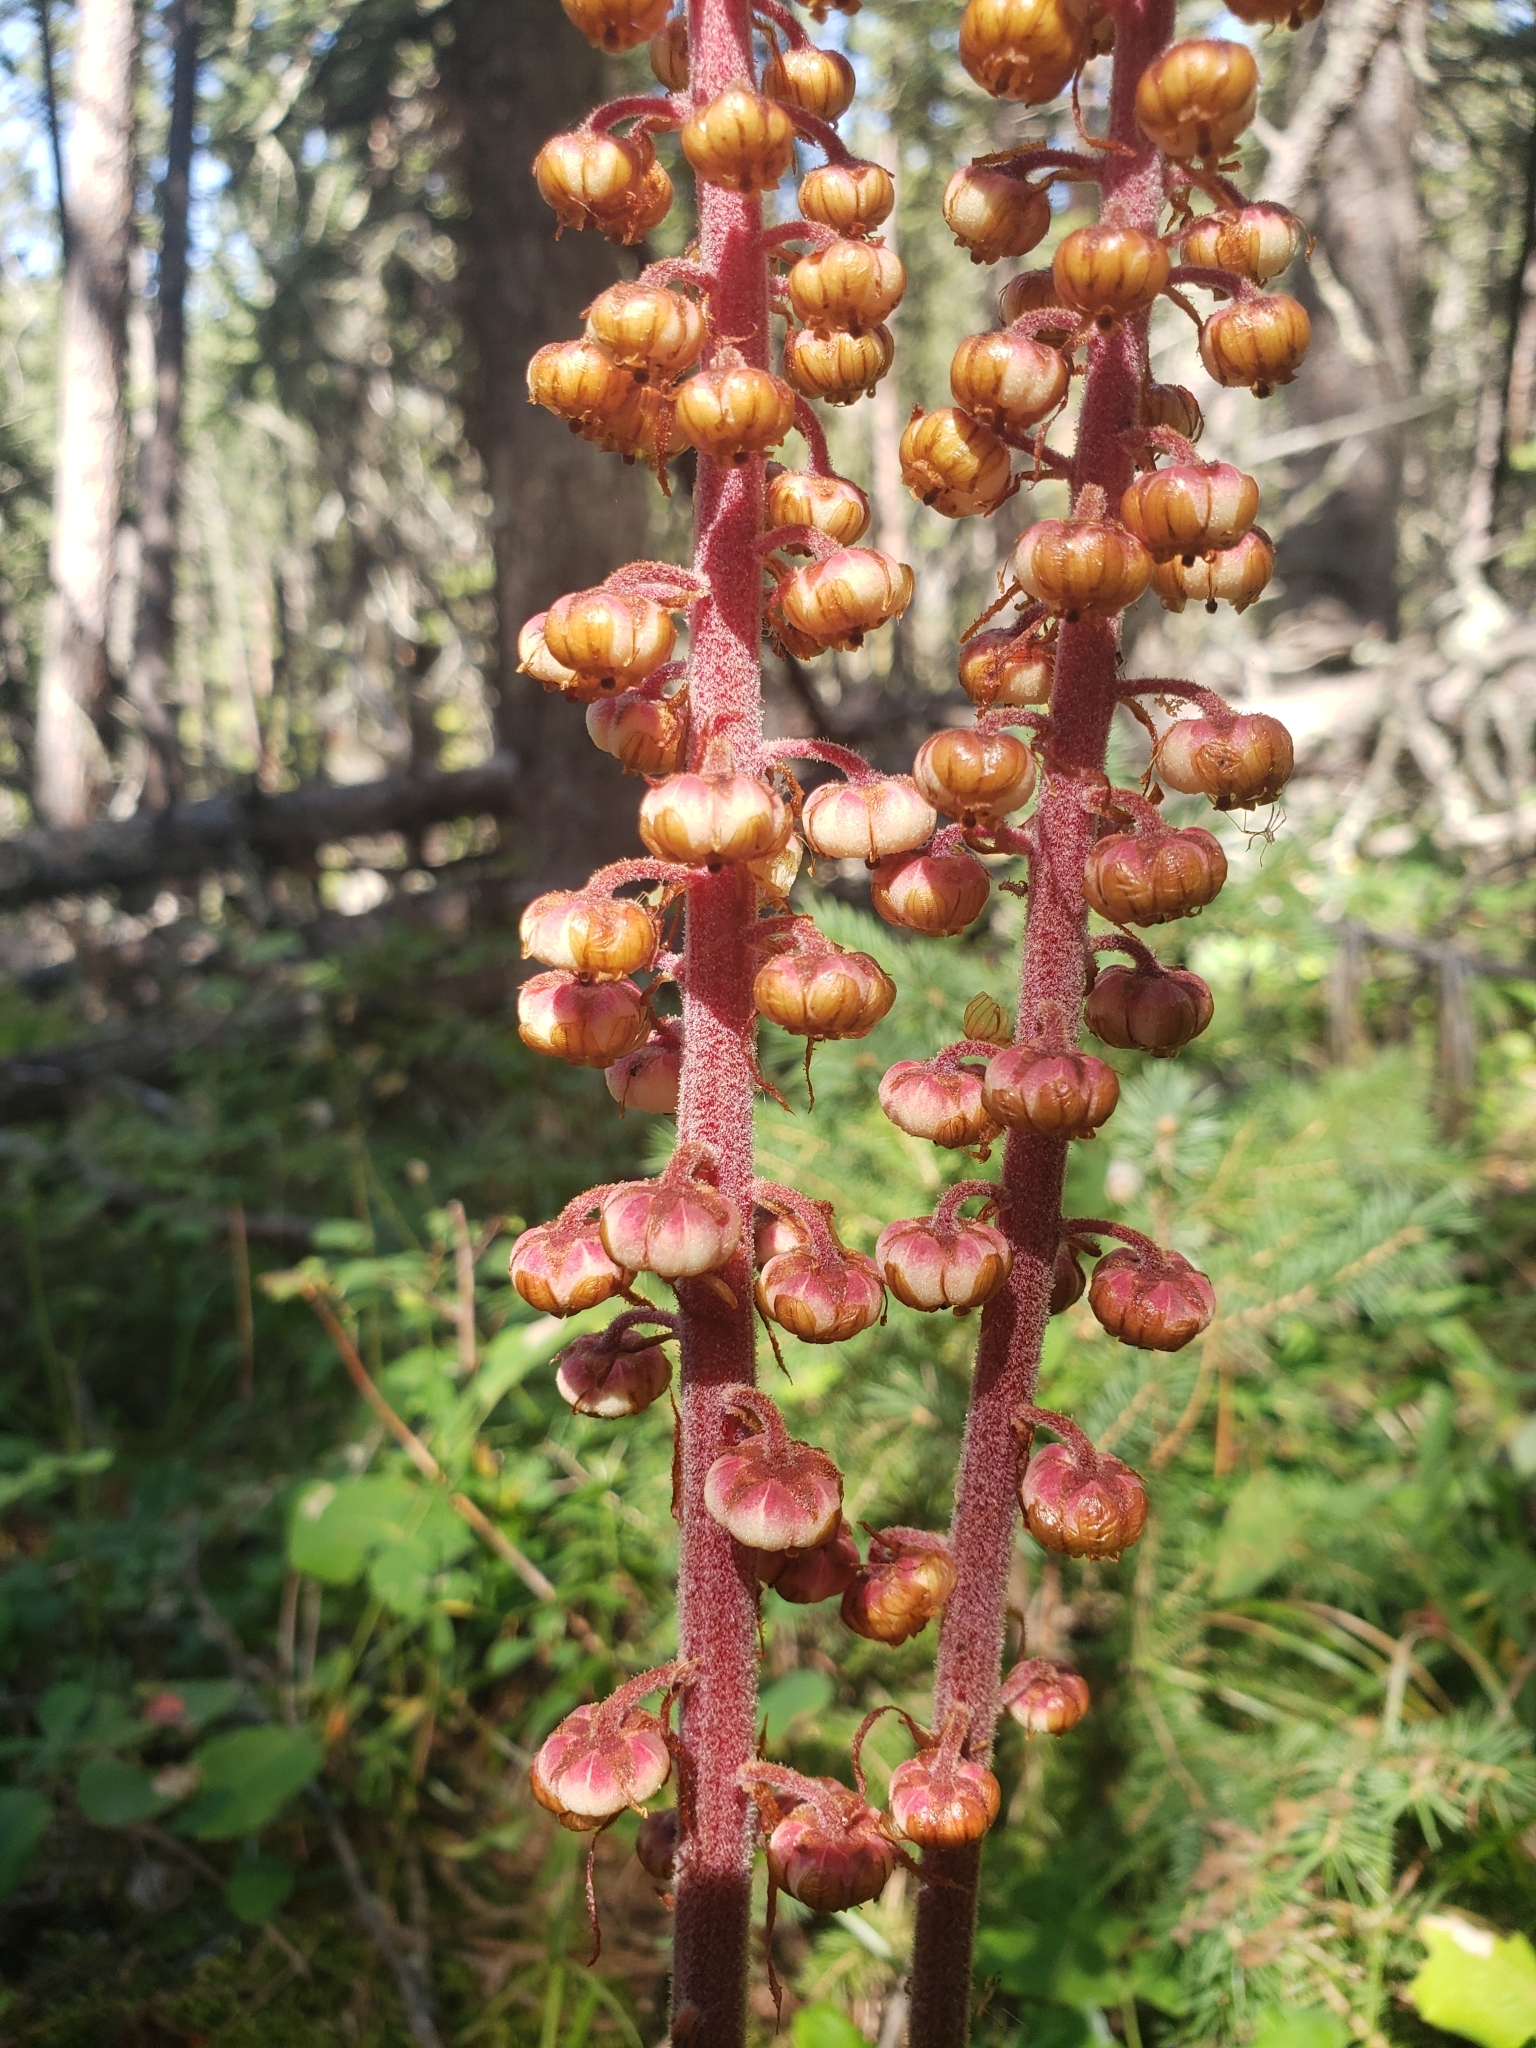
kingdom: Plantae
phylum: Tracheophyta
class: Magnoliopsida
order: Ericales
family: Ericaceae
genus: Pterospora
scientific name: Pterospora andromedea
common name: Giant bird's-nest
